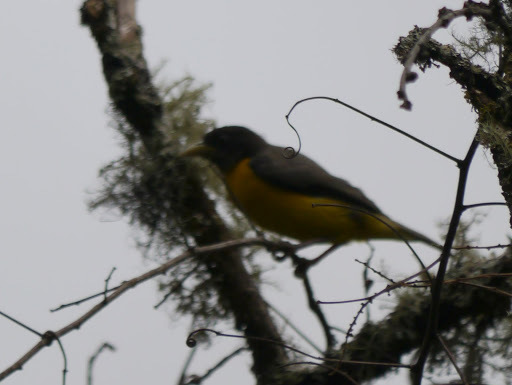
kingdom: Animalia
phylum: Chordata
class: Aves
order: Passeriformes
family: Ploceidae
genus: Ploceus
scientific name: Ploceus bicolor
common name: Dark-backed weaver
